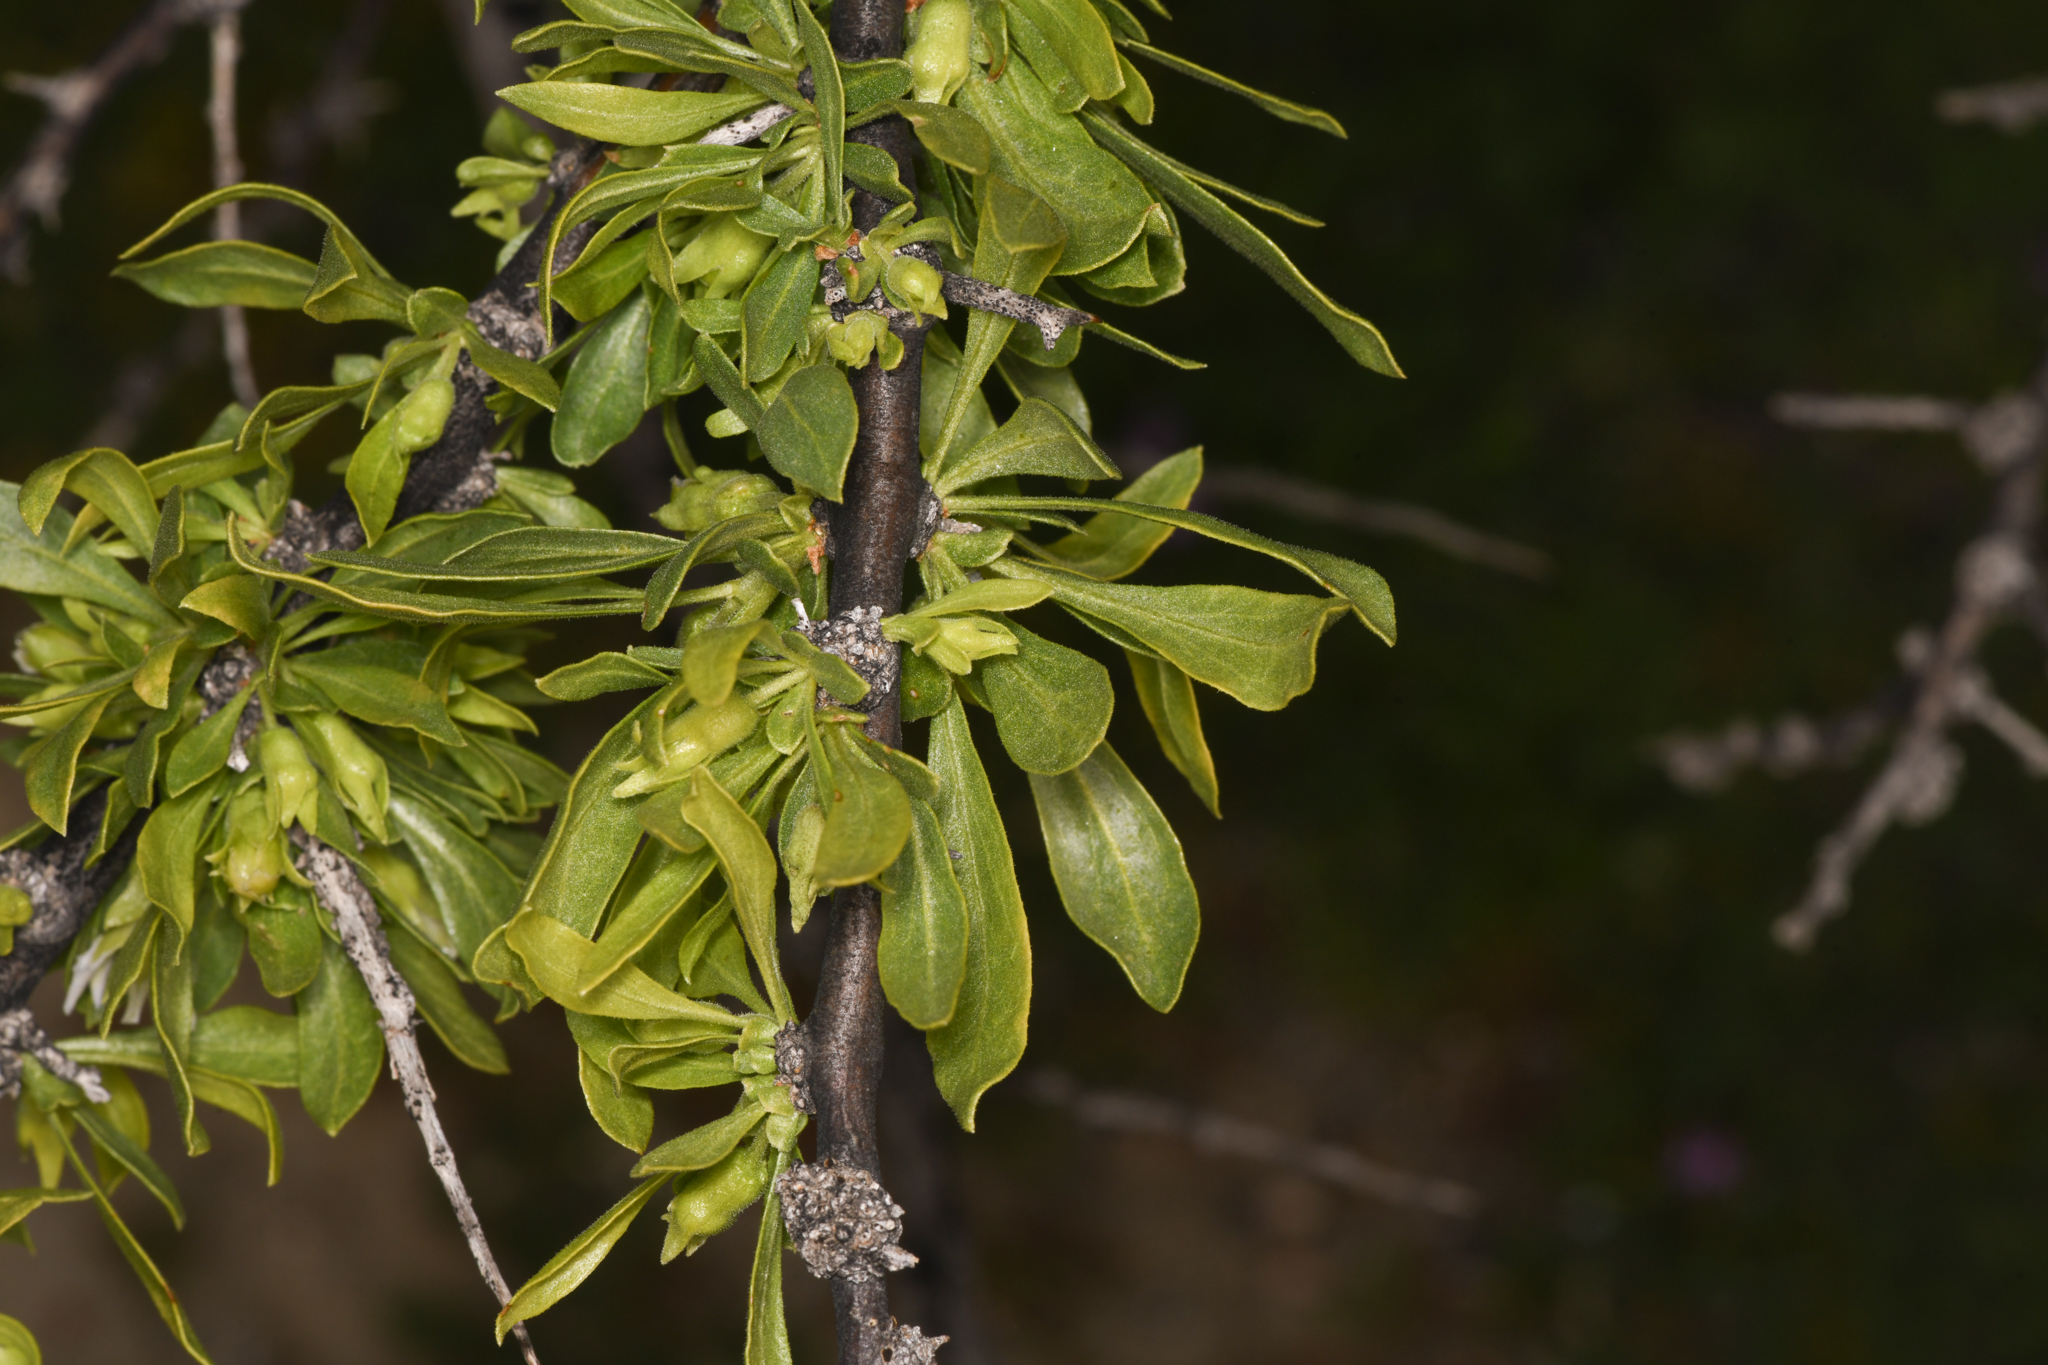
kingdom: Plantae
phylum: Tracheophyta
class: Magnoliopsida
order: Solanales
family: Solanaceae
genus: Lycium
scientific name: Lycium cooperi
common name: Peachthorn
